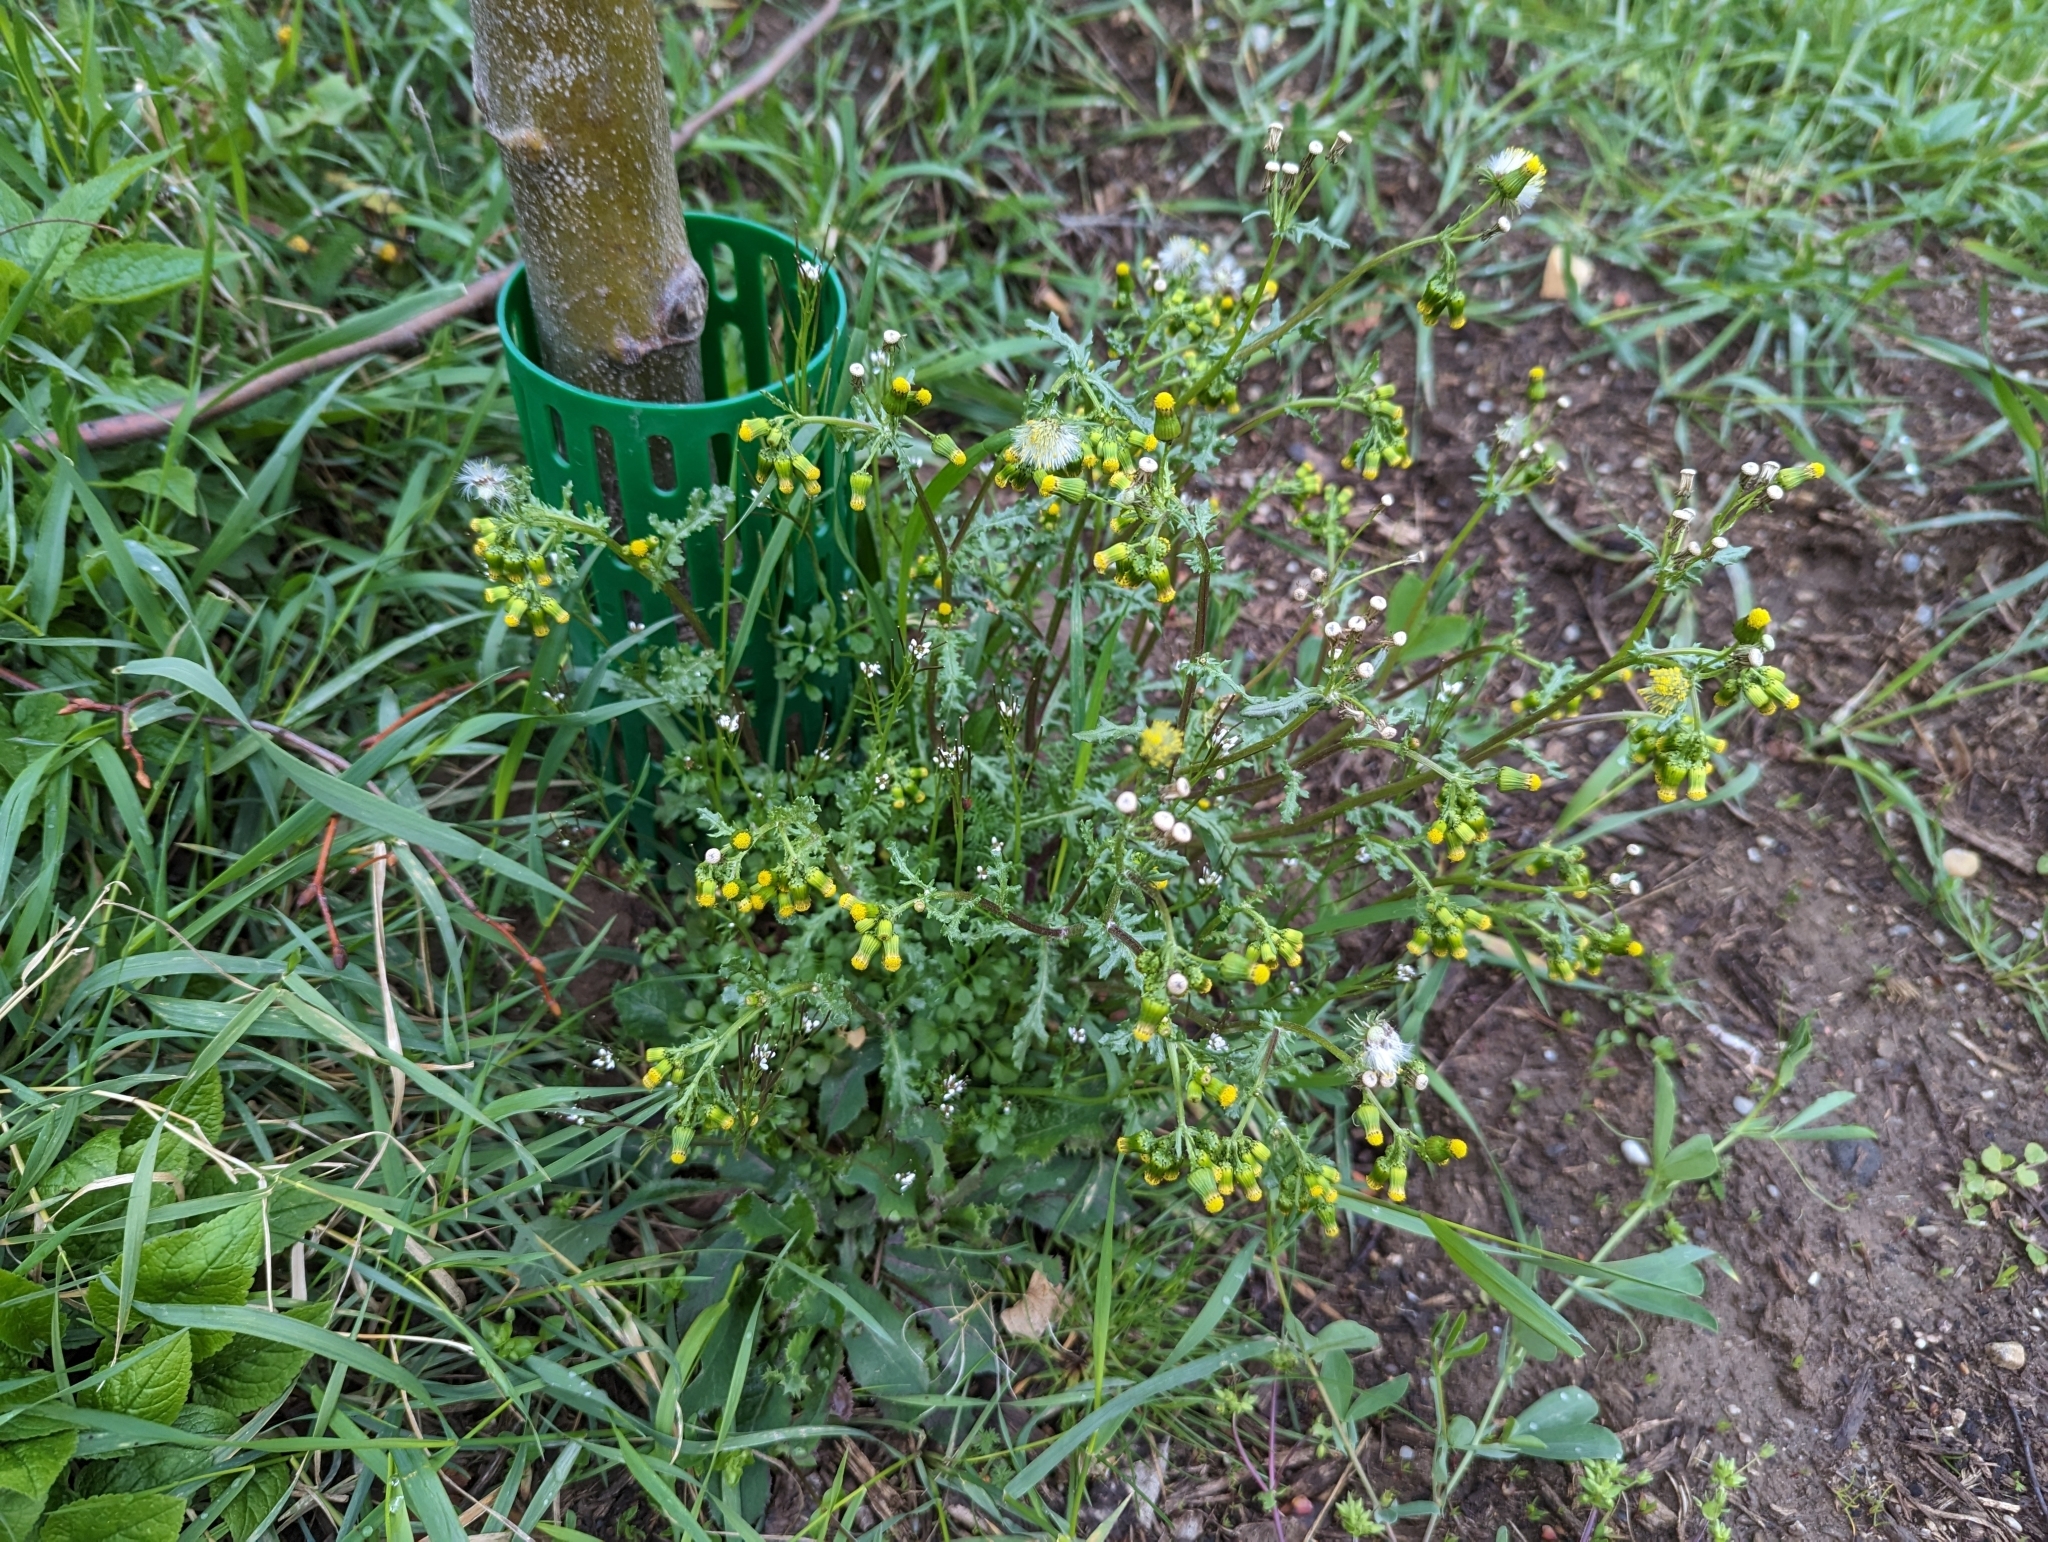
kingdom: Plantae
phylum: Tracheophyta
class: Magnoliopsida
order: Asterales
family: Asteraceae
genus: Senecio
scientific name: Senecio vulgaris
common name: Old-man-in-the-spring
